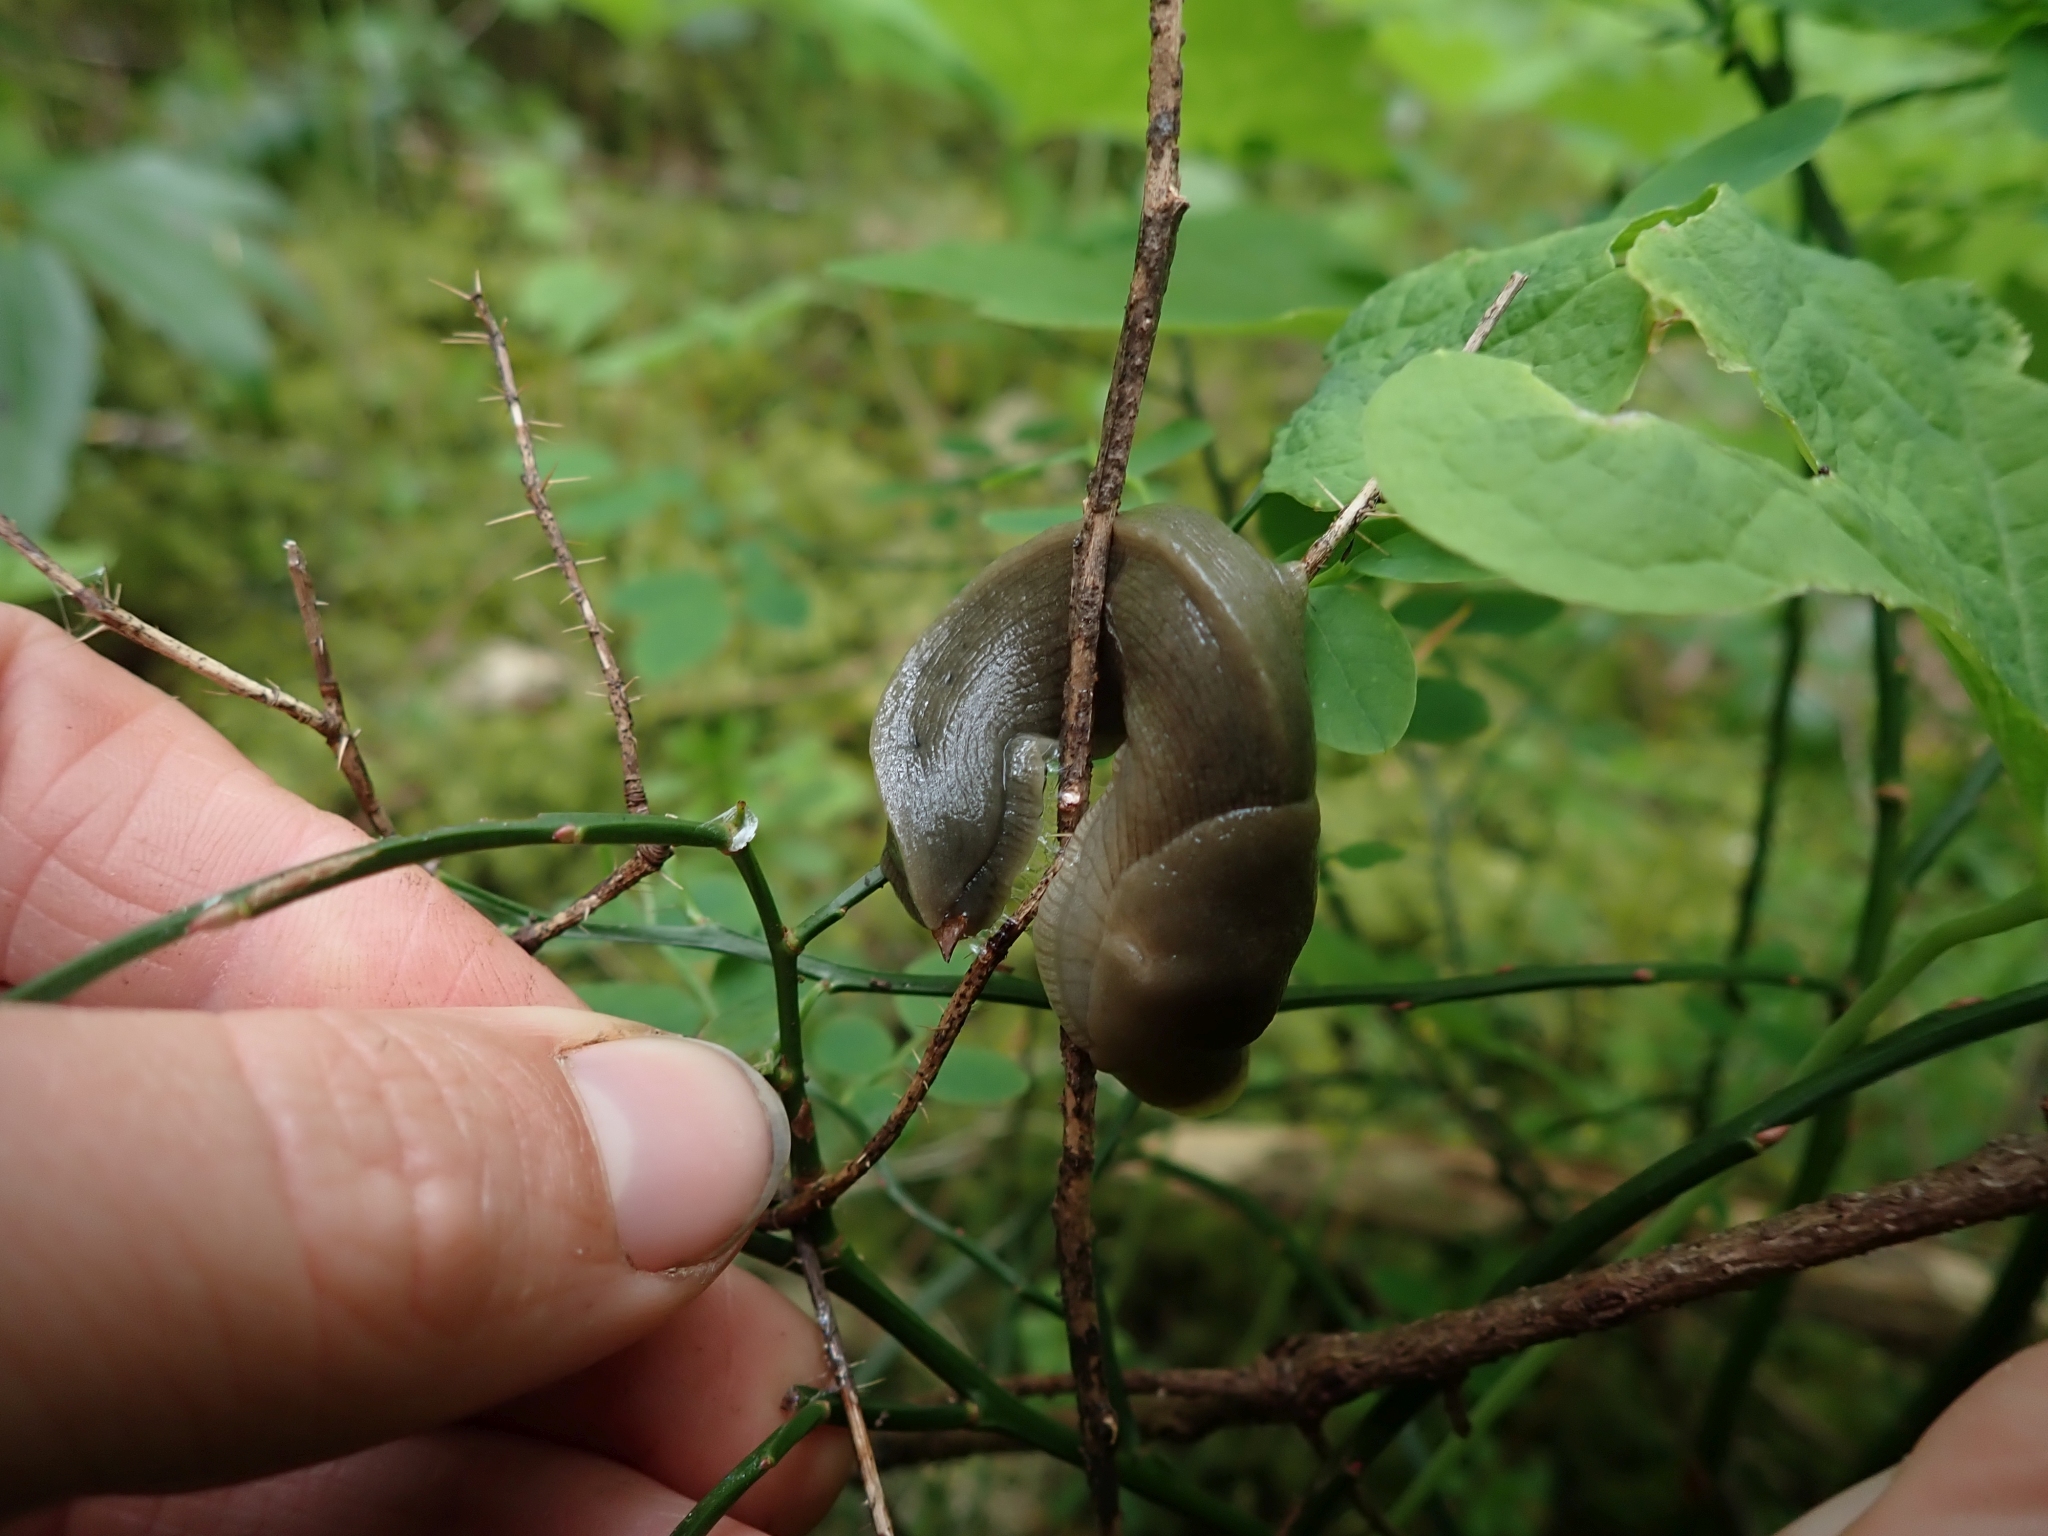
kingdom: Animalia
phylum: Mollusca
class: Gastropoda
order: Stylommatophora
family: Ariolimacidae
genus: Ariolimax
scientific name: Ariolimax columbianus
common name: Pacific banana slug
